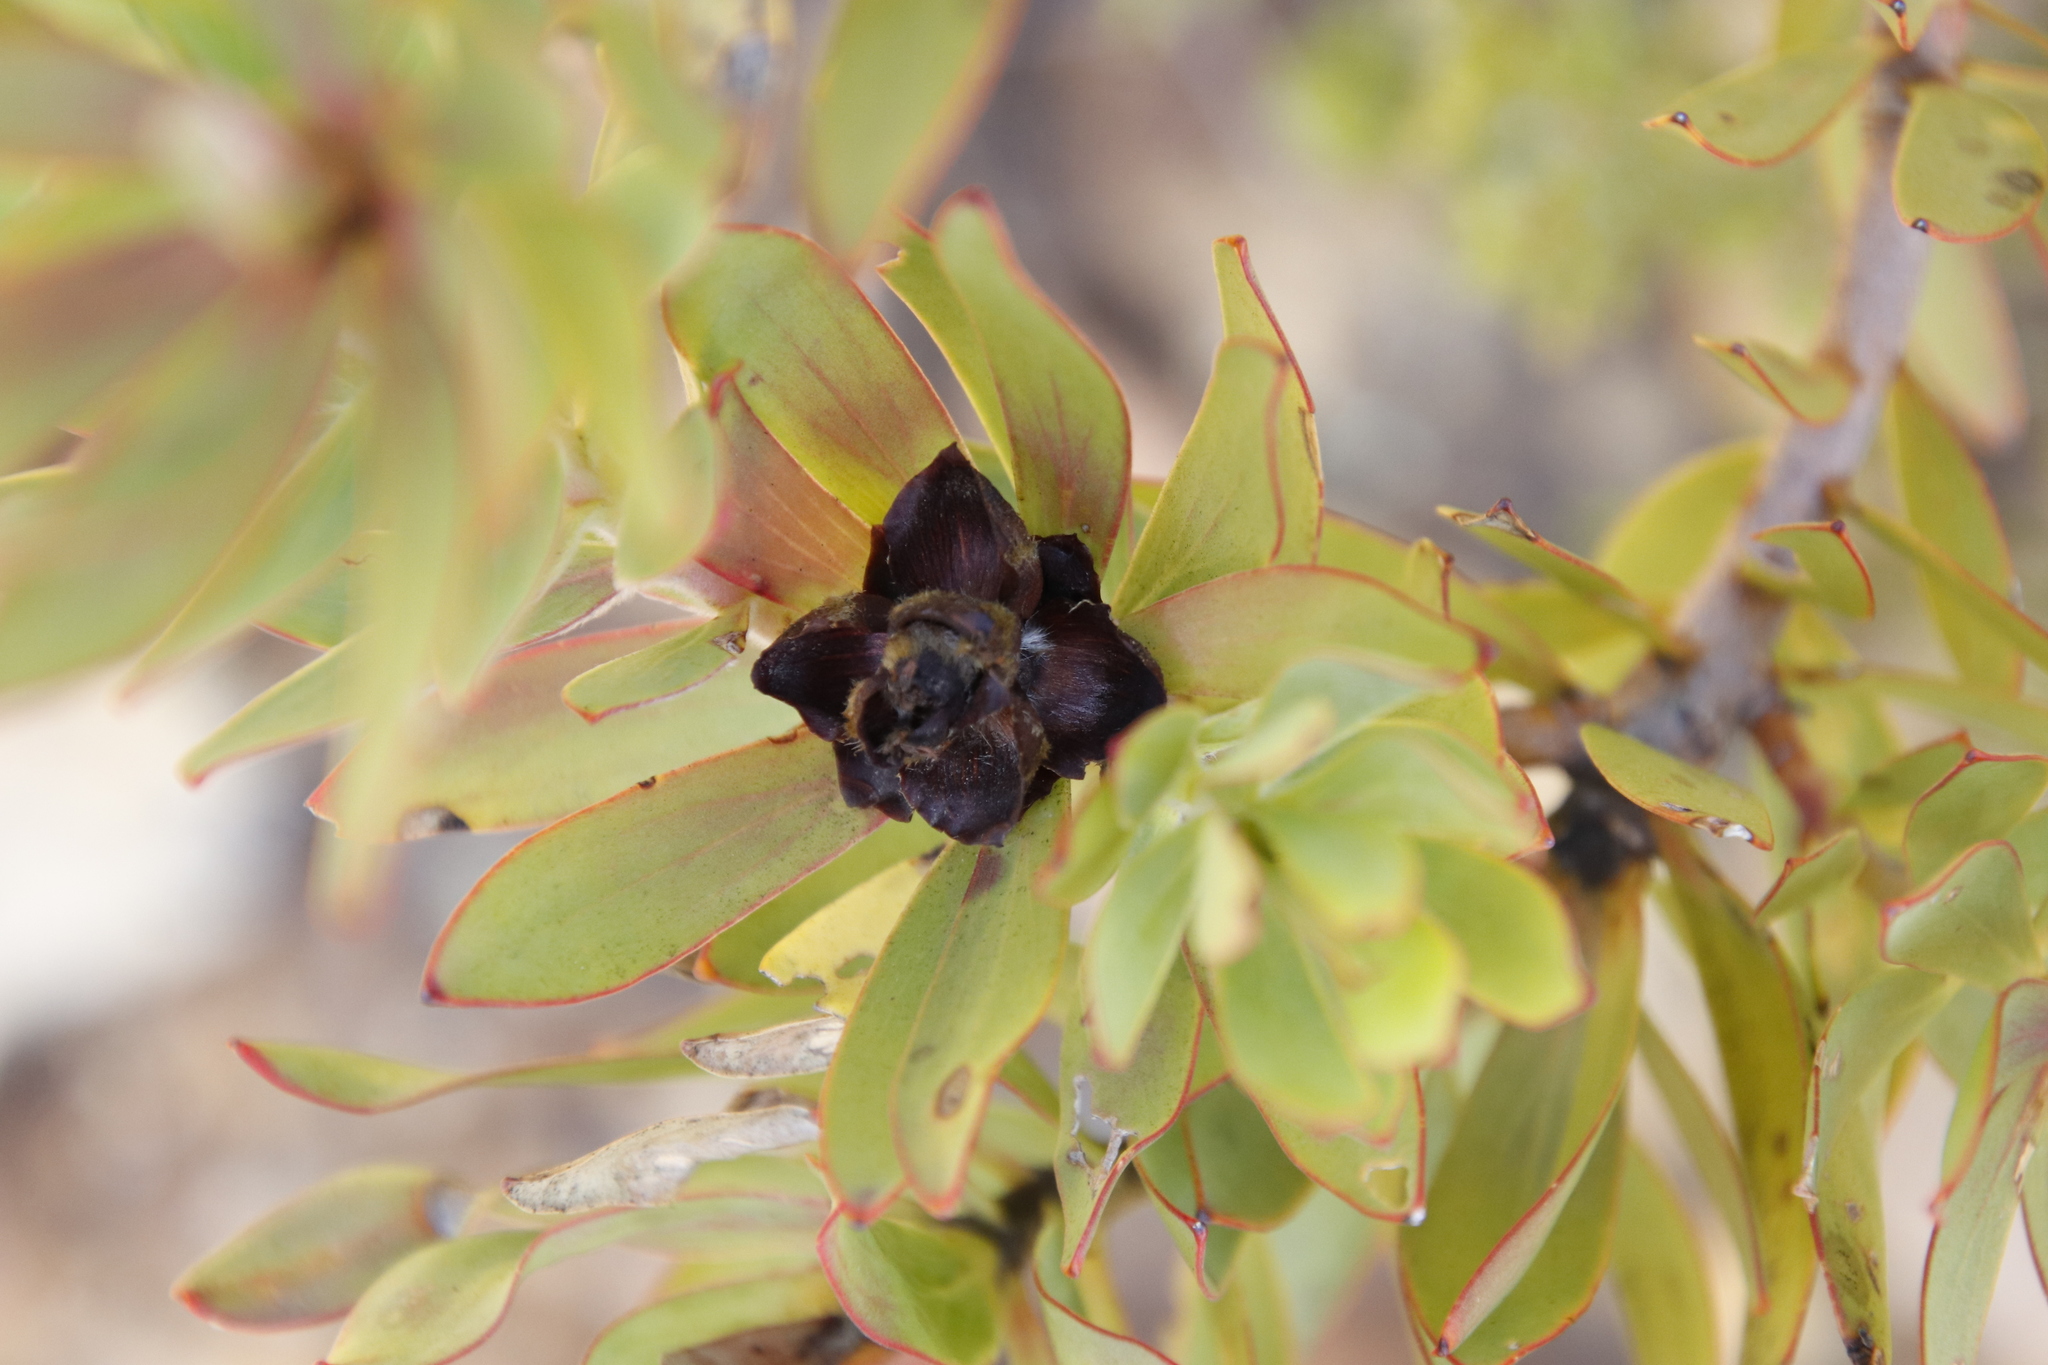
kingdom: Plantae
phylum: Tracheophyta
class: Magnoliopsida
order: Proteales
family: Proteaceae
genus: Leucadendron
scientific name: Leucadendron sessile
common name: Western sunbush
